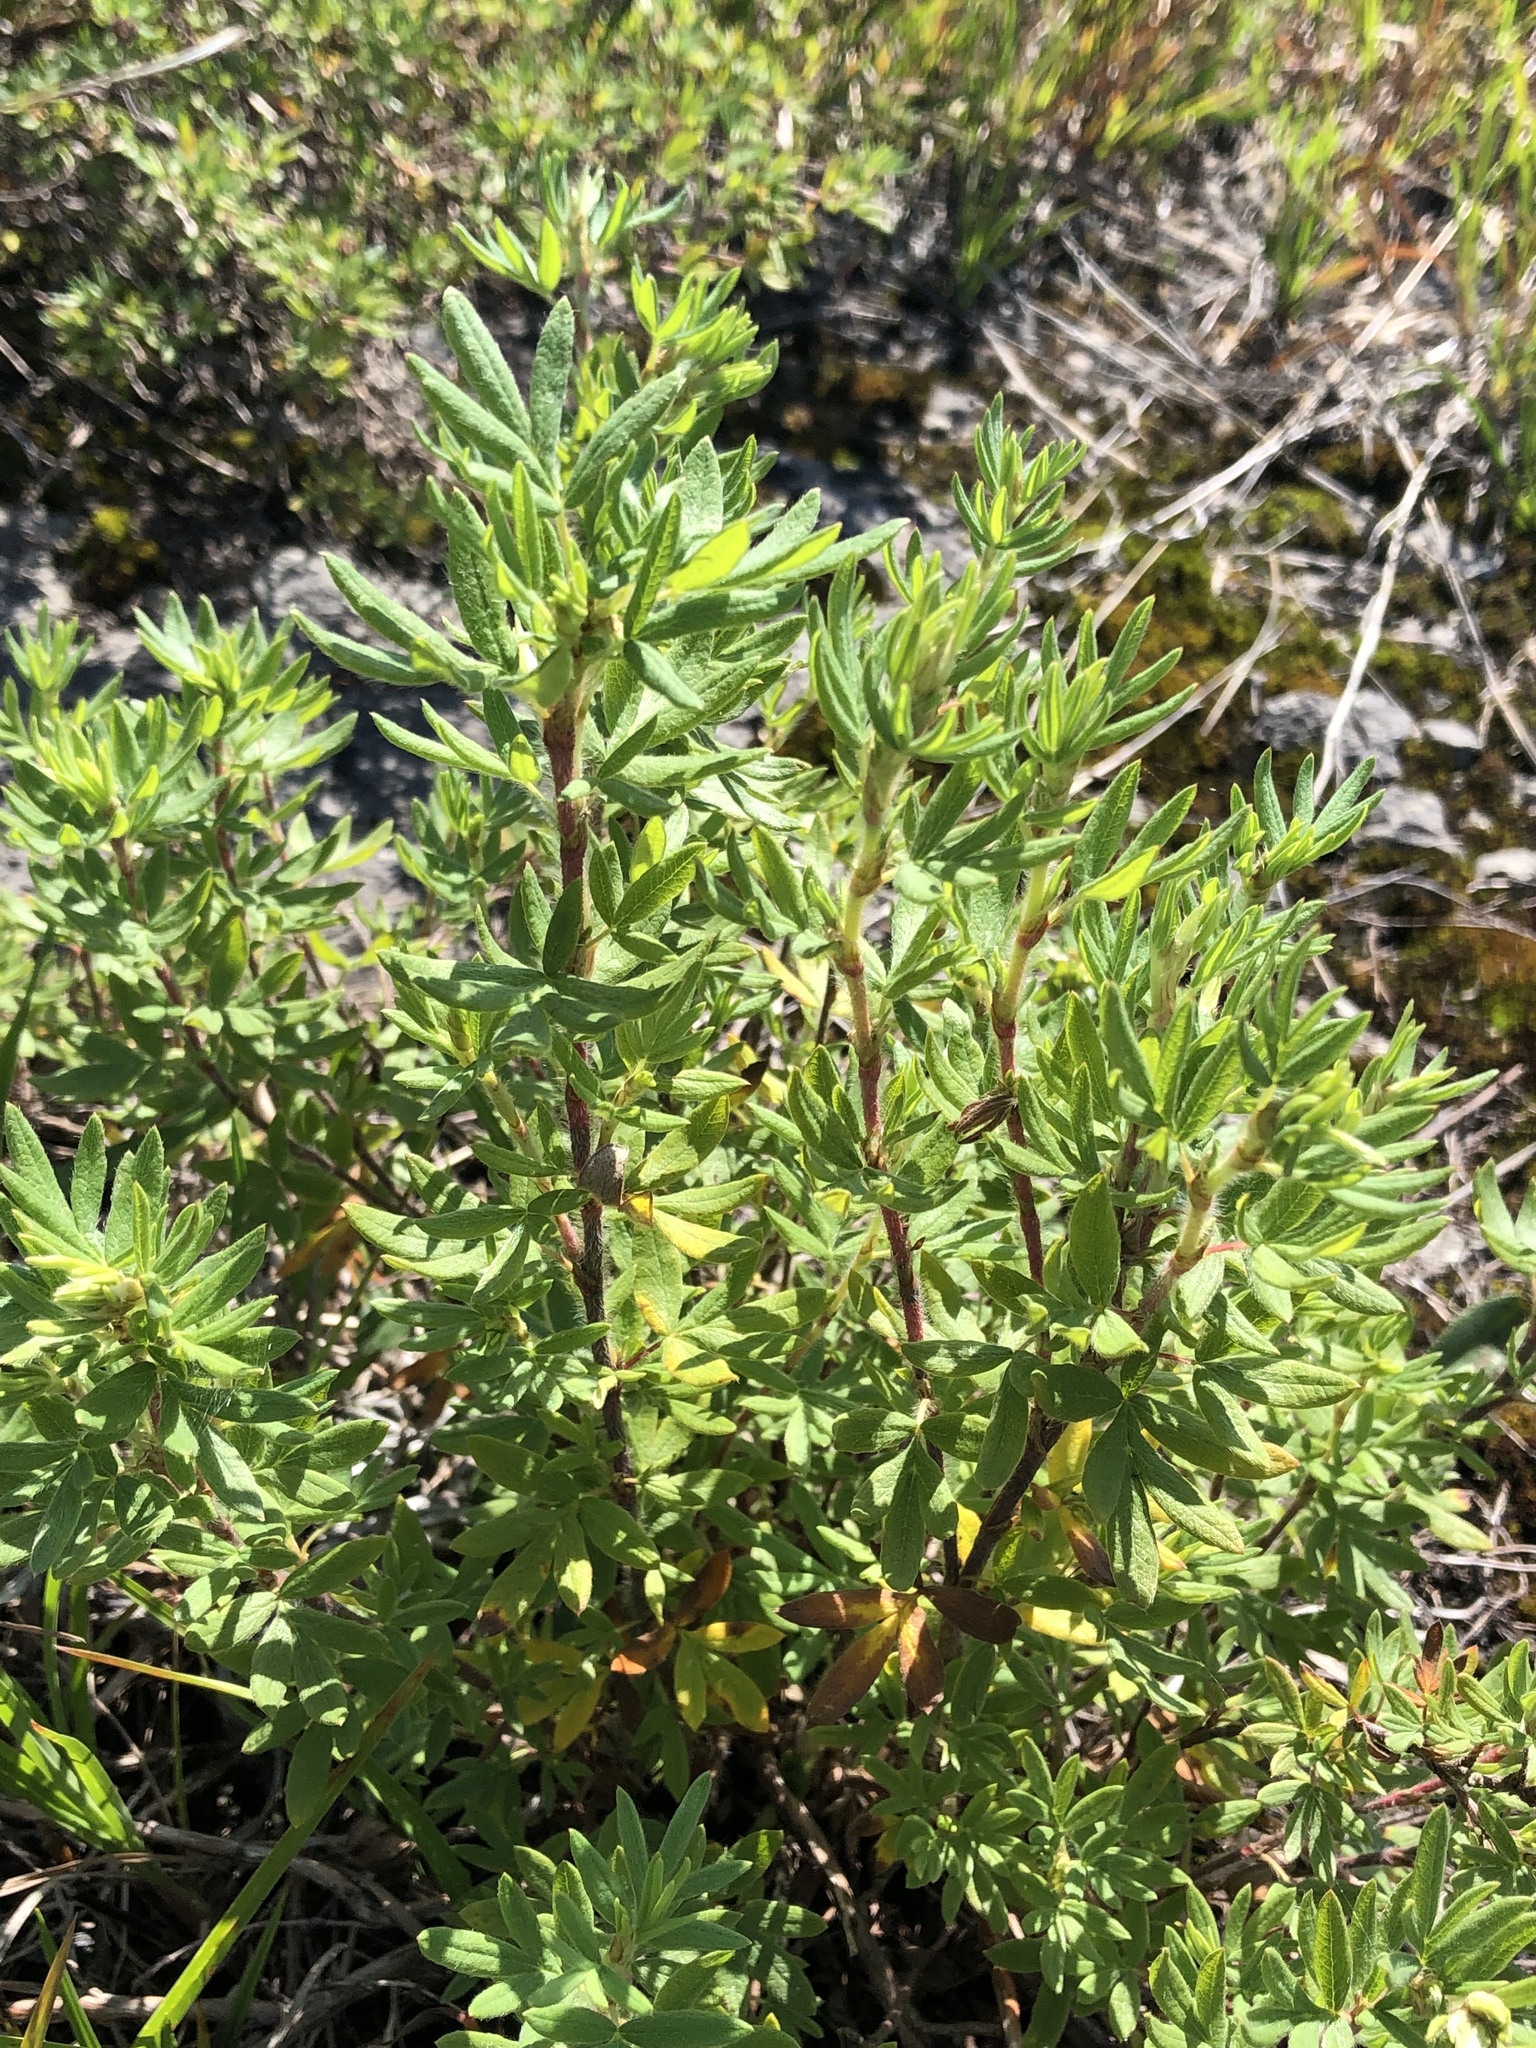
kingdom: Plantae
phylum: Tracheophyta
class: Magnoliopsida
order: Rosales
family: Rosaceae
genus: Dasiphora
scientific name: Dasiphora fruticosa
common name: Shrubby cinquefoil
